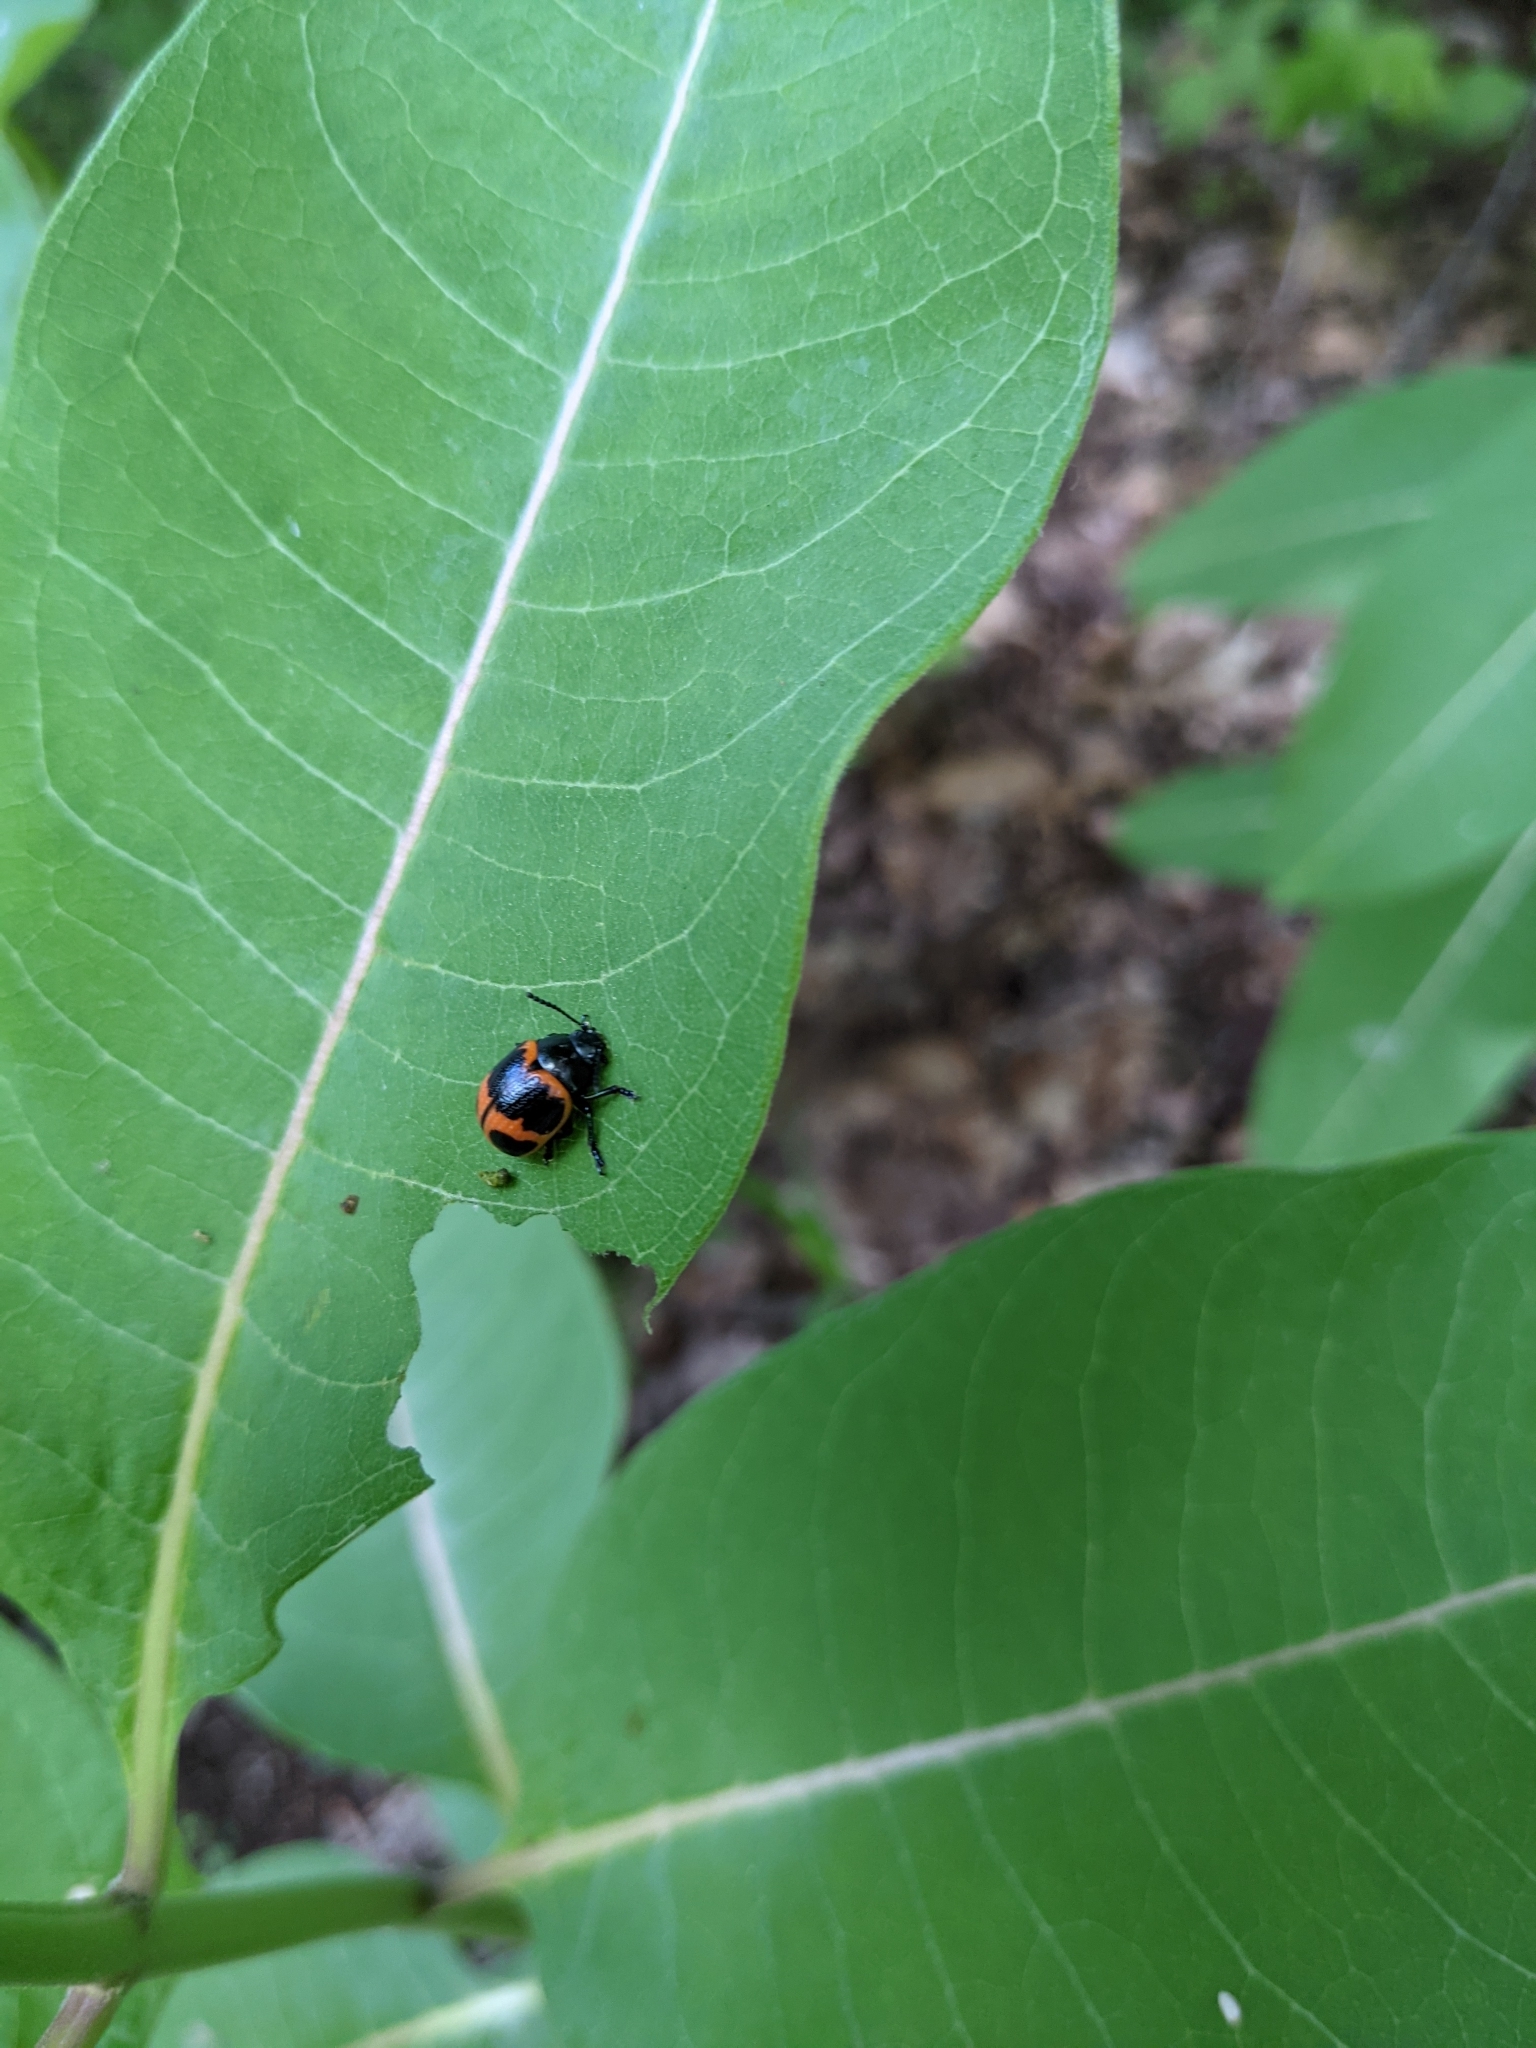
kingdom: Animalia
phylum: Arthropoda
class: Insecta
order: Coleoptera
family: Chrysomelidae
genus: Labidomera
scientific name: Labidomera clivicollis
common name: Swamp milkweed leaf beetle
